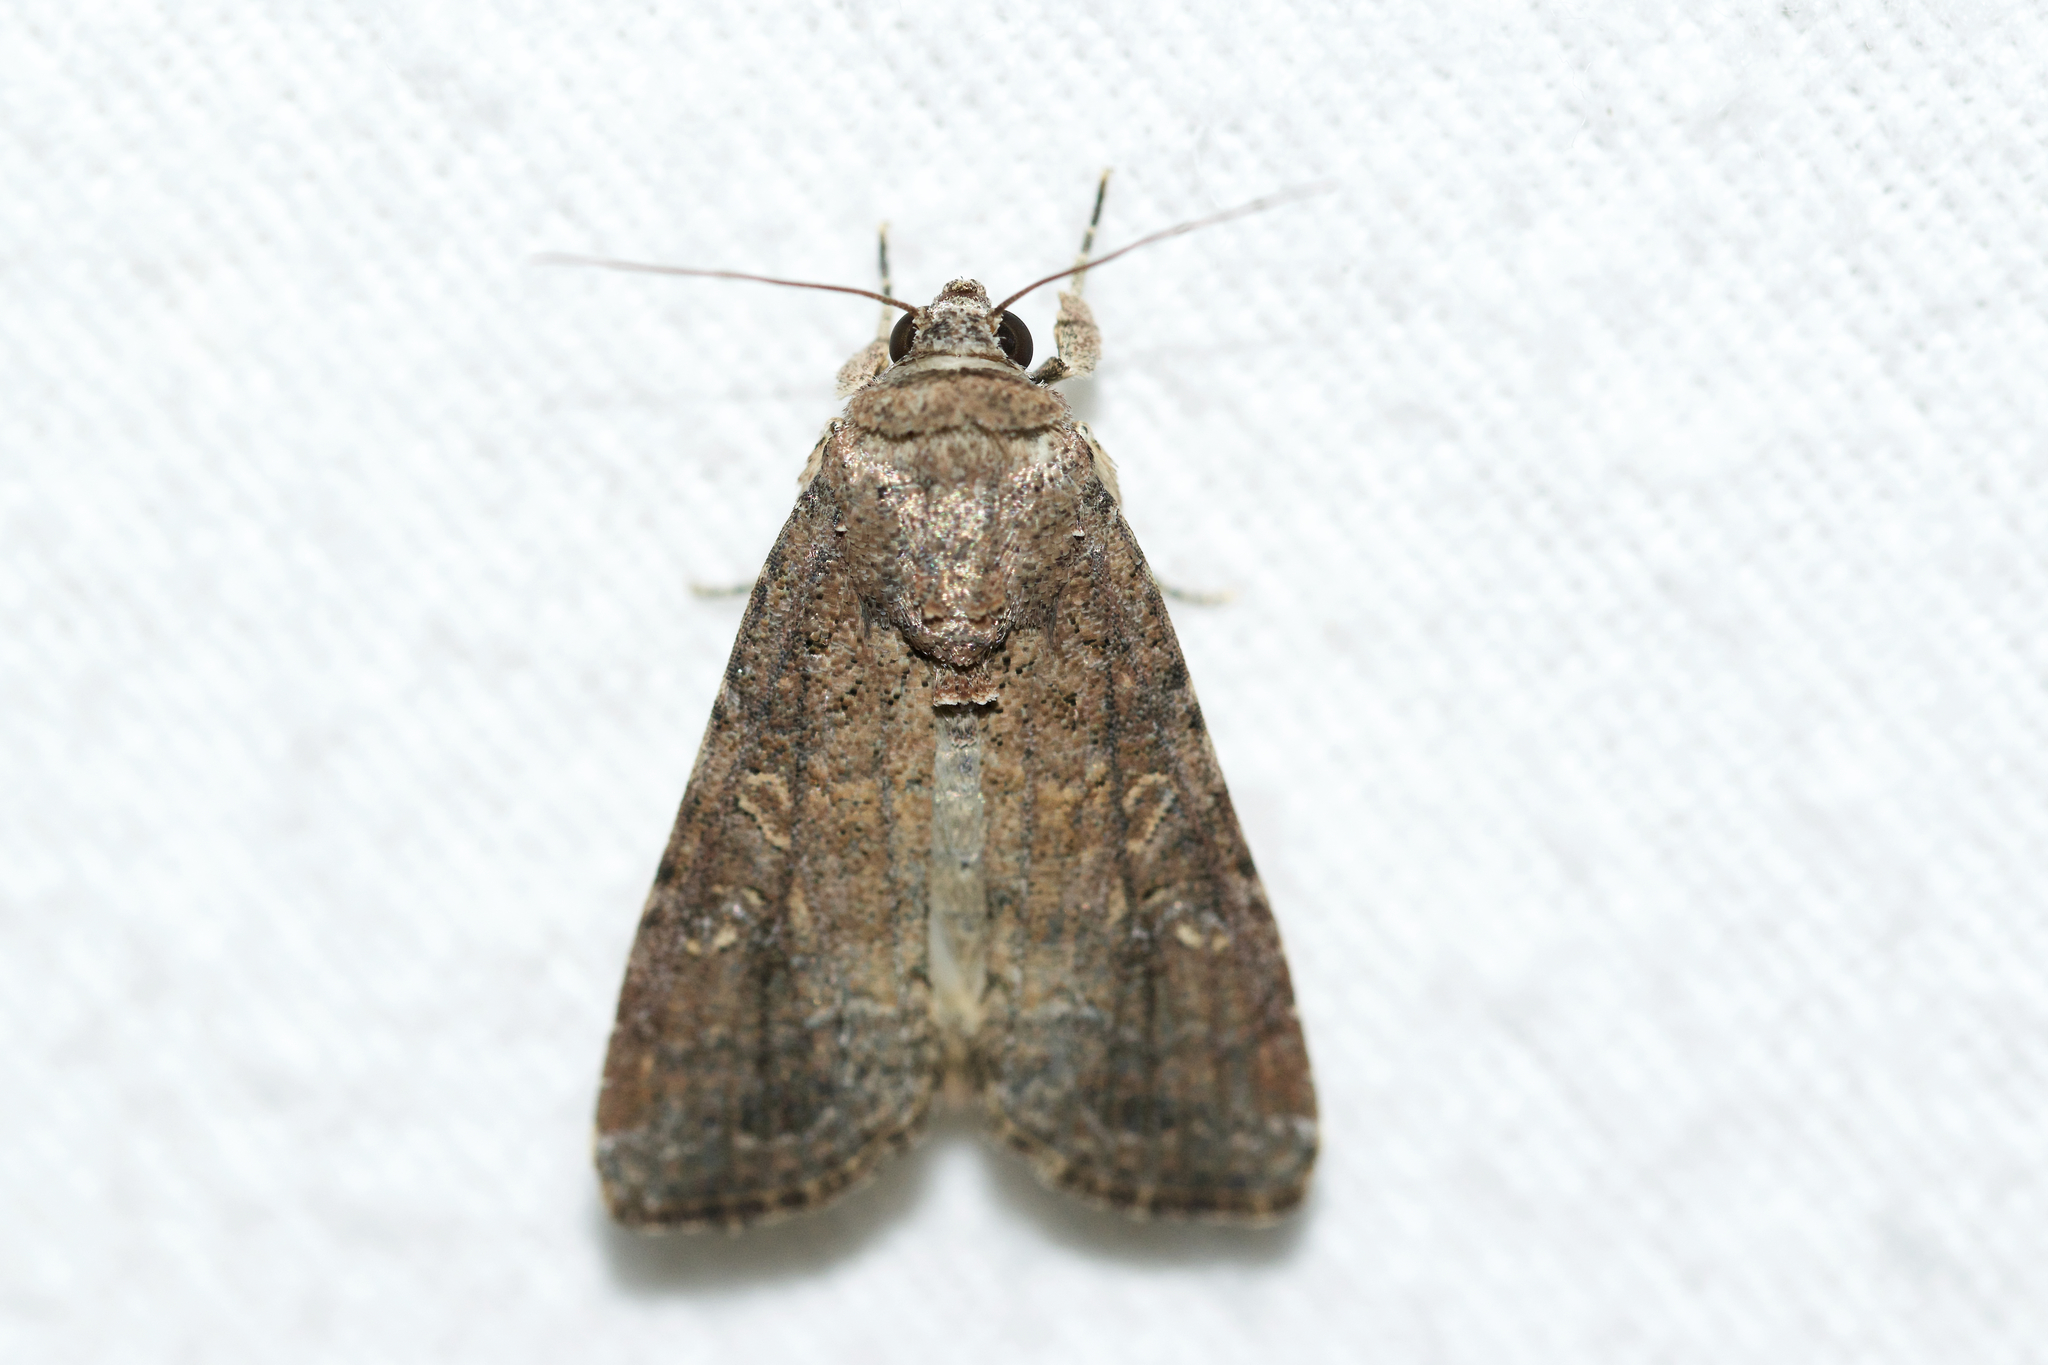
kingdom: Animalia
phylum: Arthropoda
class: Insecta
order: Lepidoptera
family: Noctuidae
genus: Spodoptera
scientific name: Spodoptera frugiperda
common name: Fall armyworm
